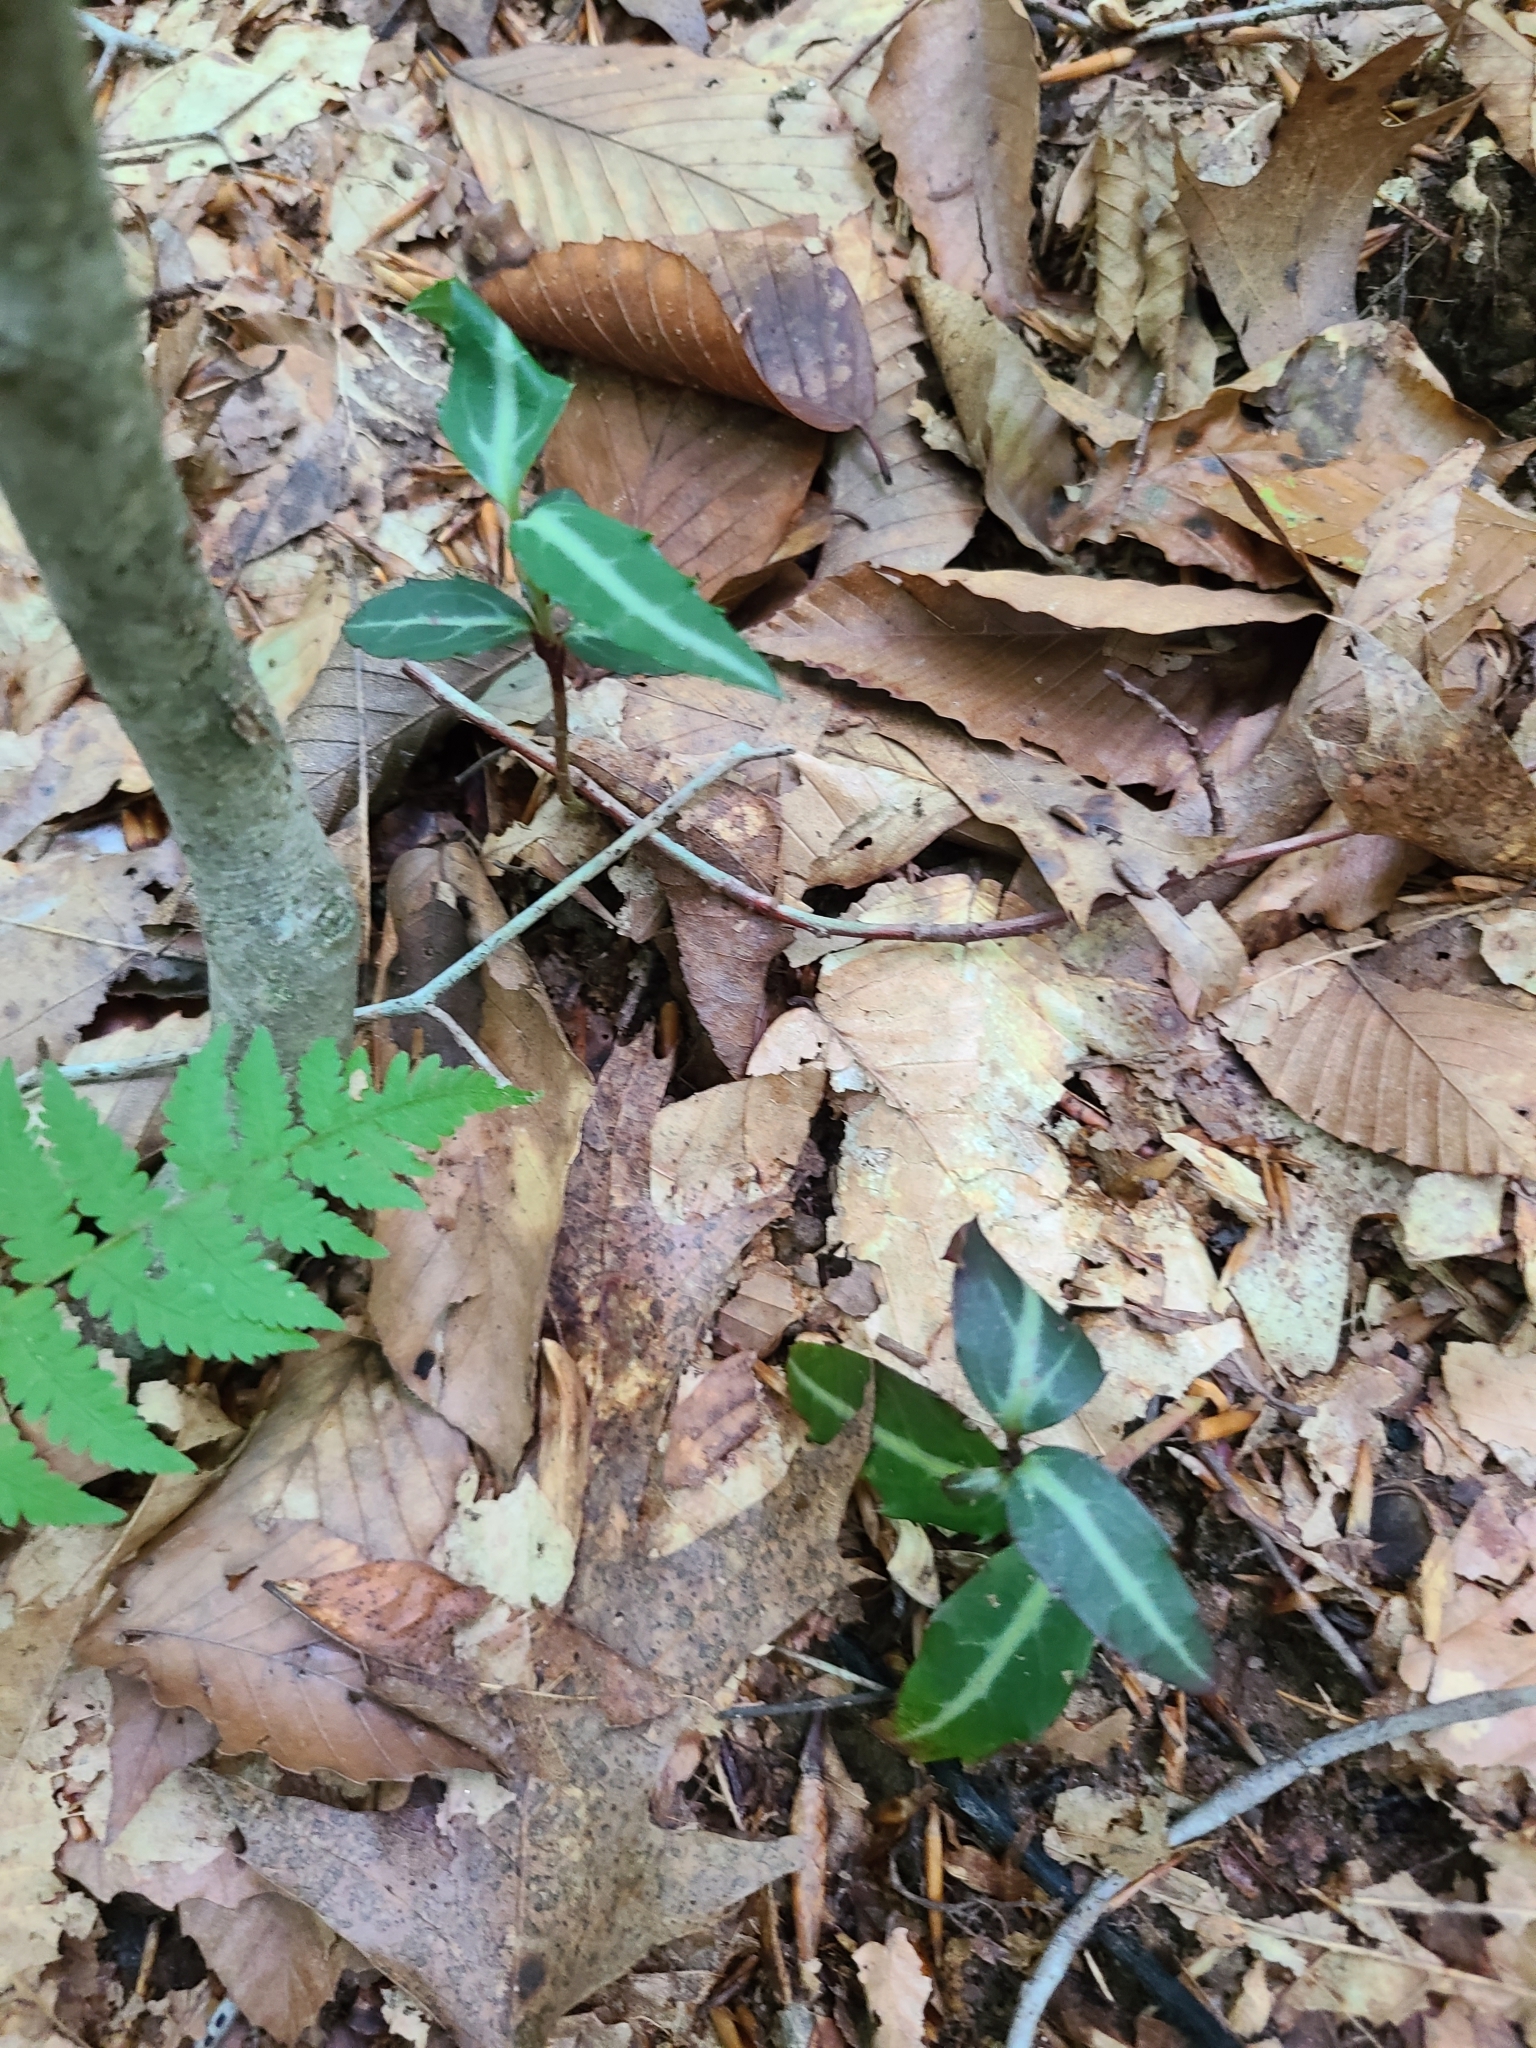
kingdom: Plantae
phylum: Tracheophyta
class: Magnoliopsida
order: Ericales
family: Ericaceae
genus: Chimaphila
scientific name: Chimaphila maculata
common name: Spotted pipsissewa
